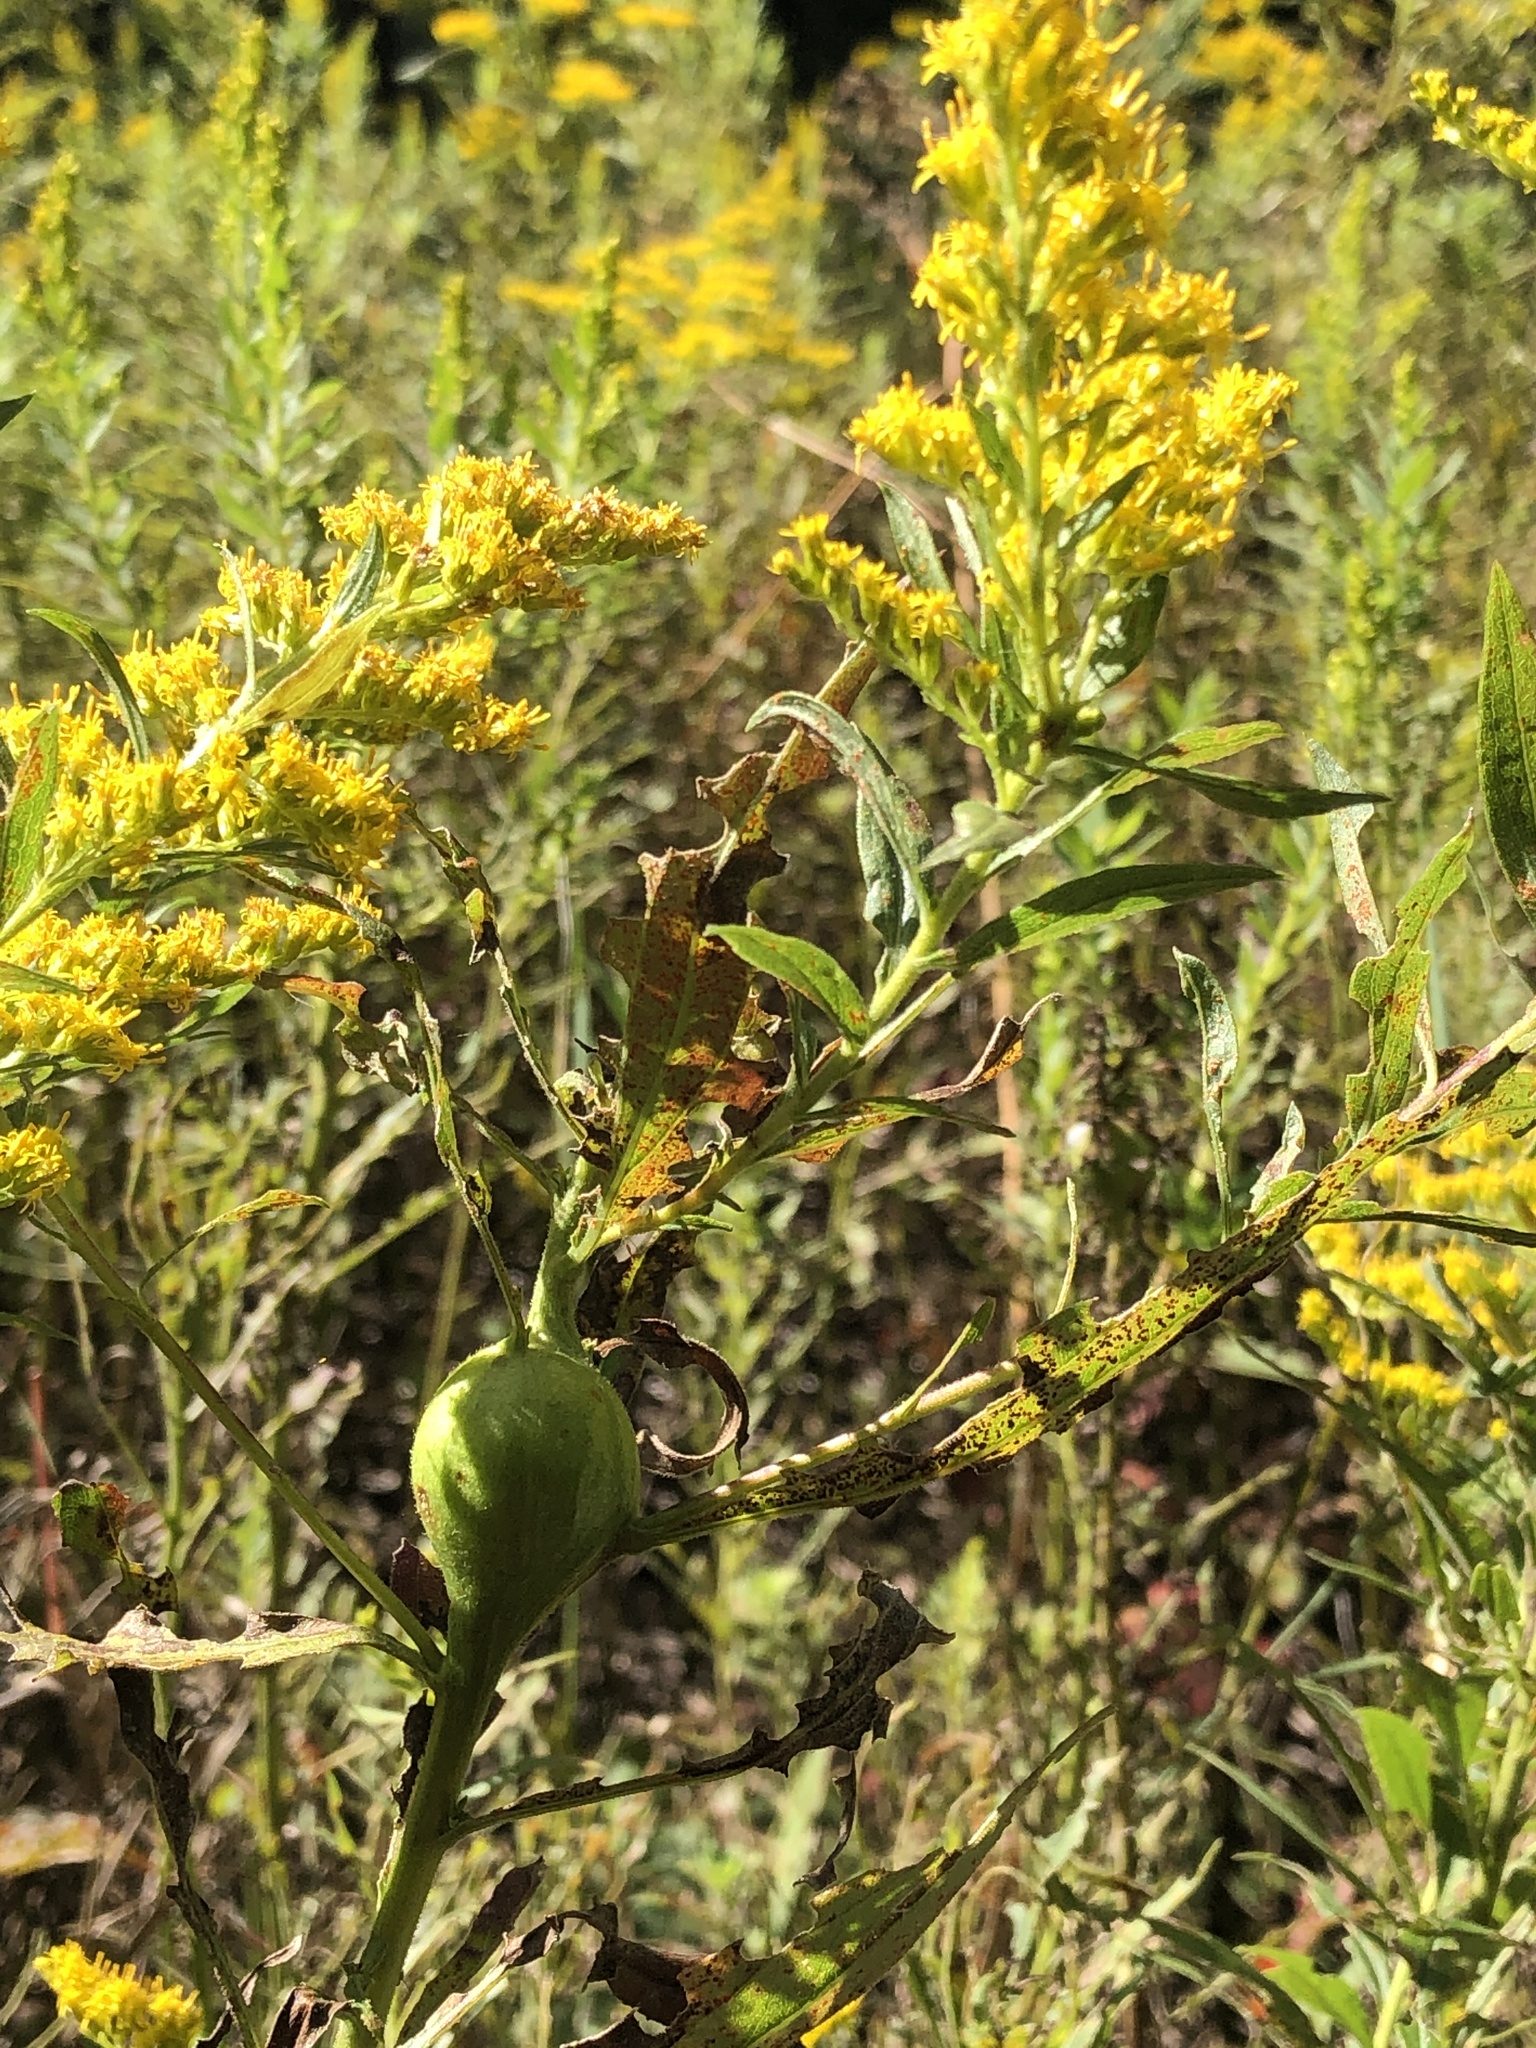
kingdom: Animalia
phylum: Arthropoda
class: Insecta
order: Diptera
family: Tephritidae
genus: Eurosta
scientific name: Eurosta solidaginis
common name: Goldenrod gall fly
